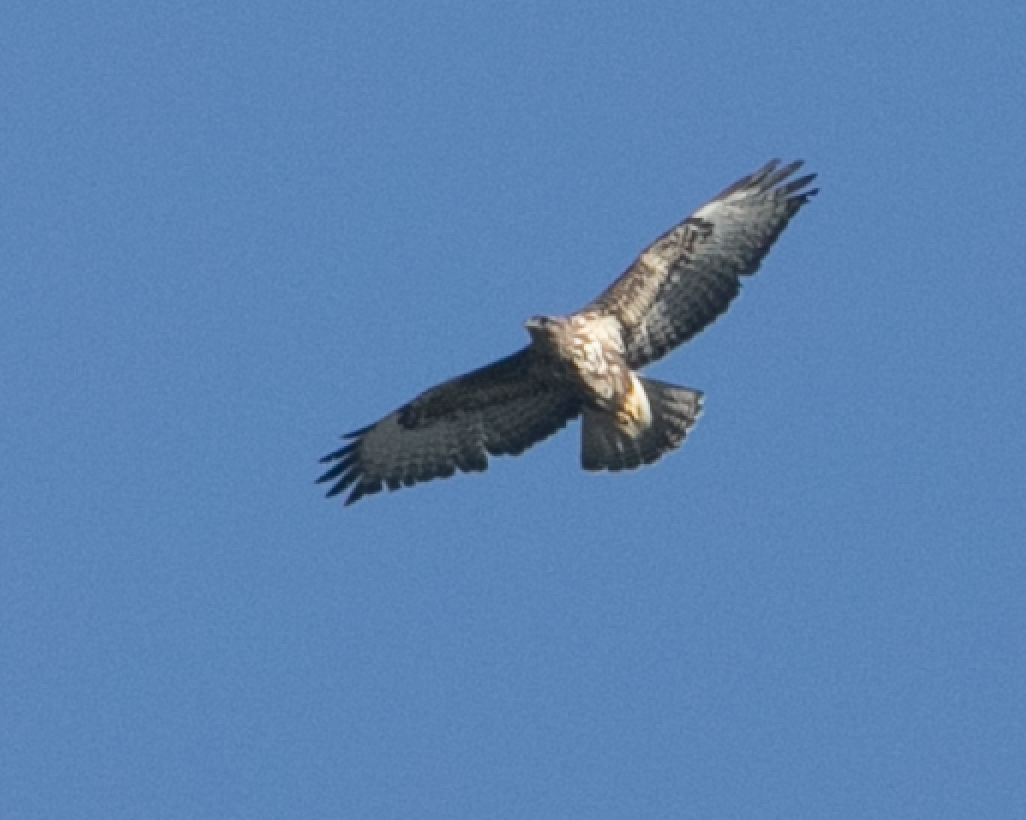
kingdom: Animalia
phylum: Chordata
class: Aves
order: Accipitriformes
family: Accipitridae
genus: Buteo
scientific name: Buteo buteo
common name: Common buzzard
